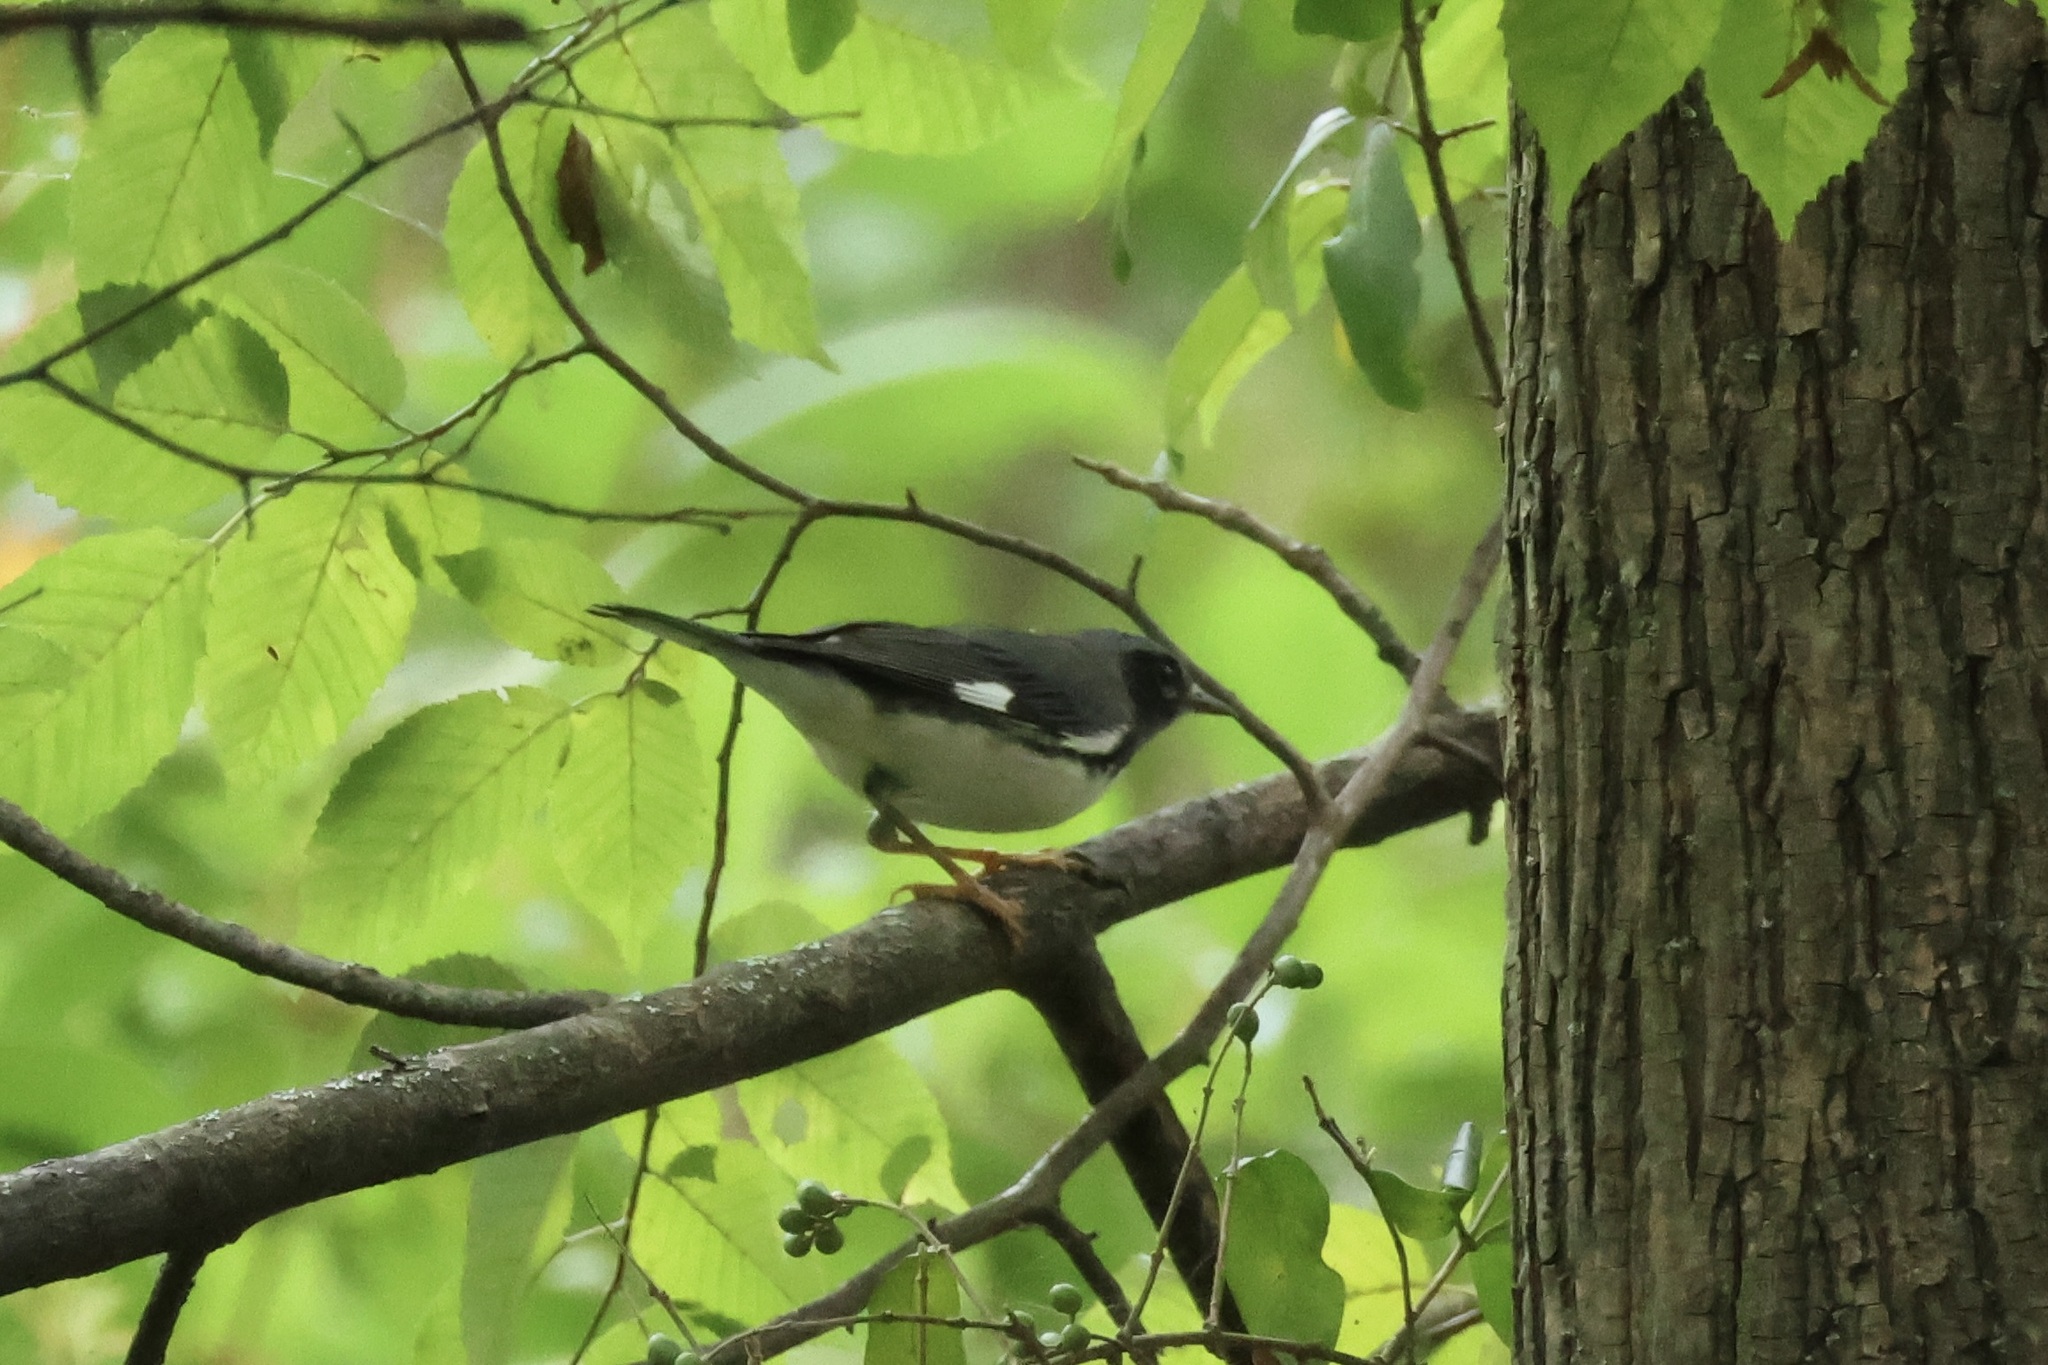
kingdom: Animalia
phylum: Chordata
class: Aves
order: Passeriformes
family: Parulidae
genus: Setophaga
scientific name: Setophaga caerulescens
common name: Black-throated blue warbler
